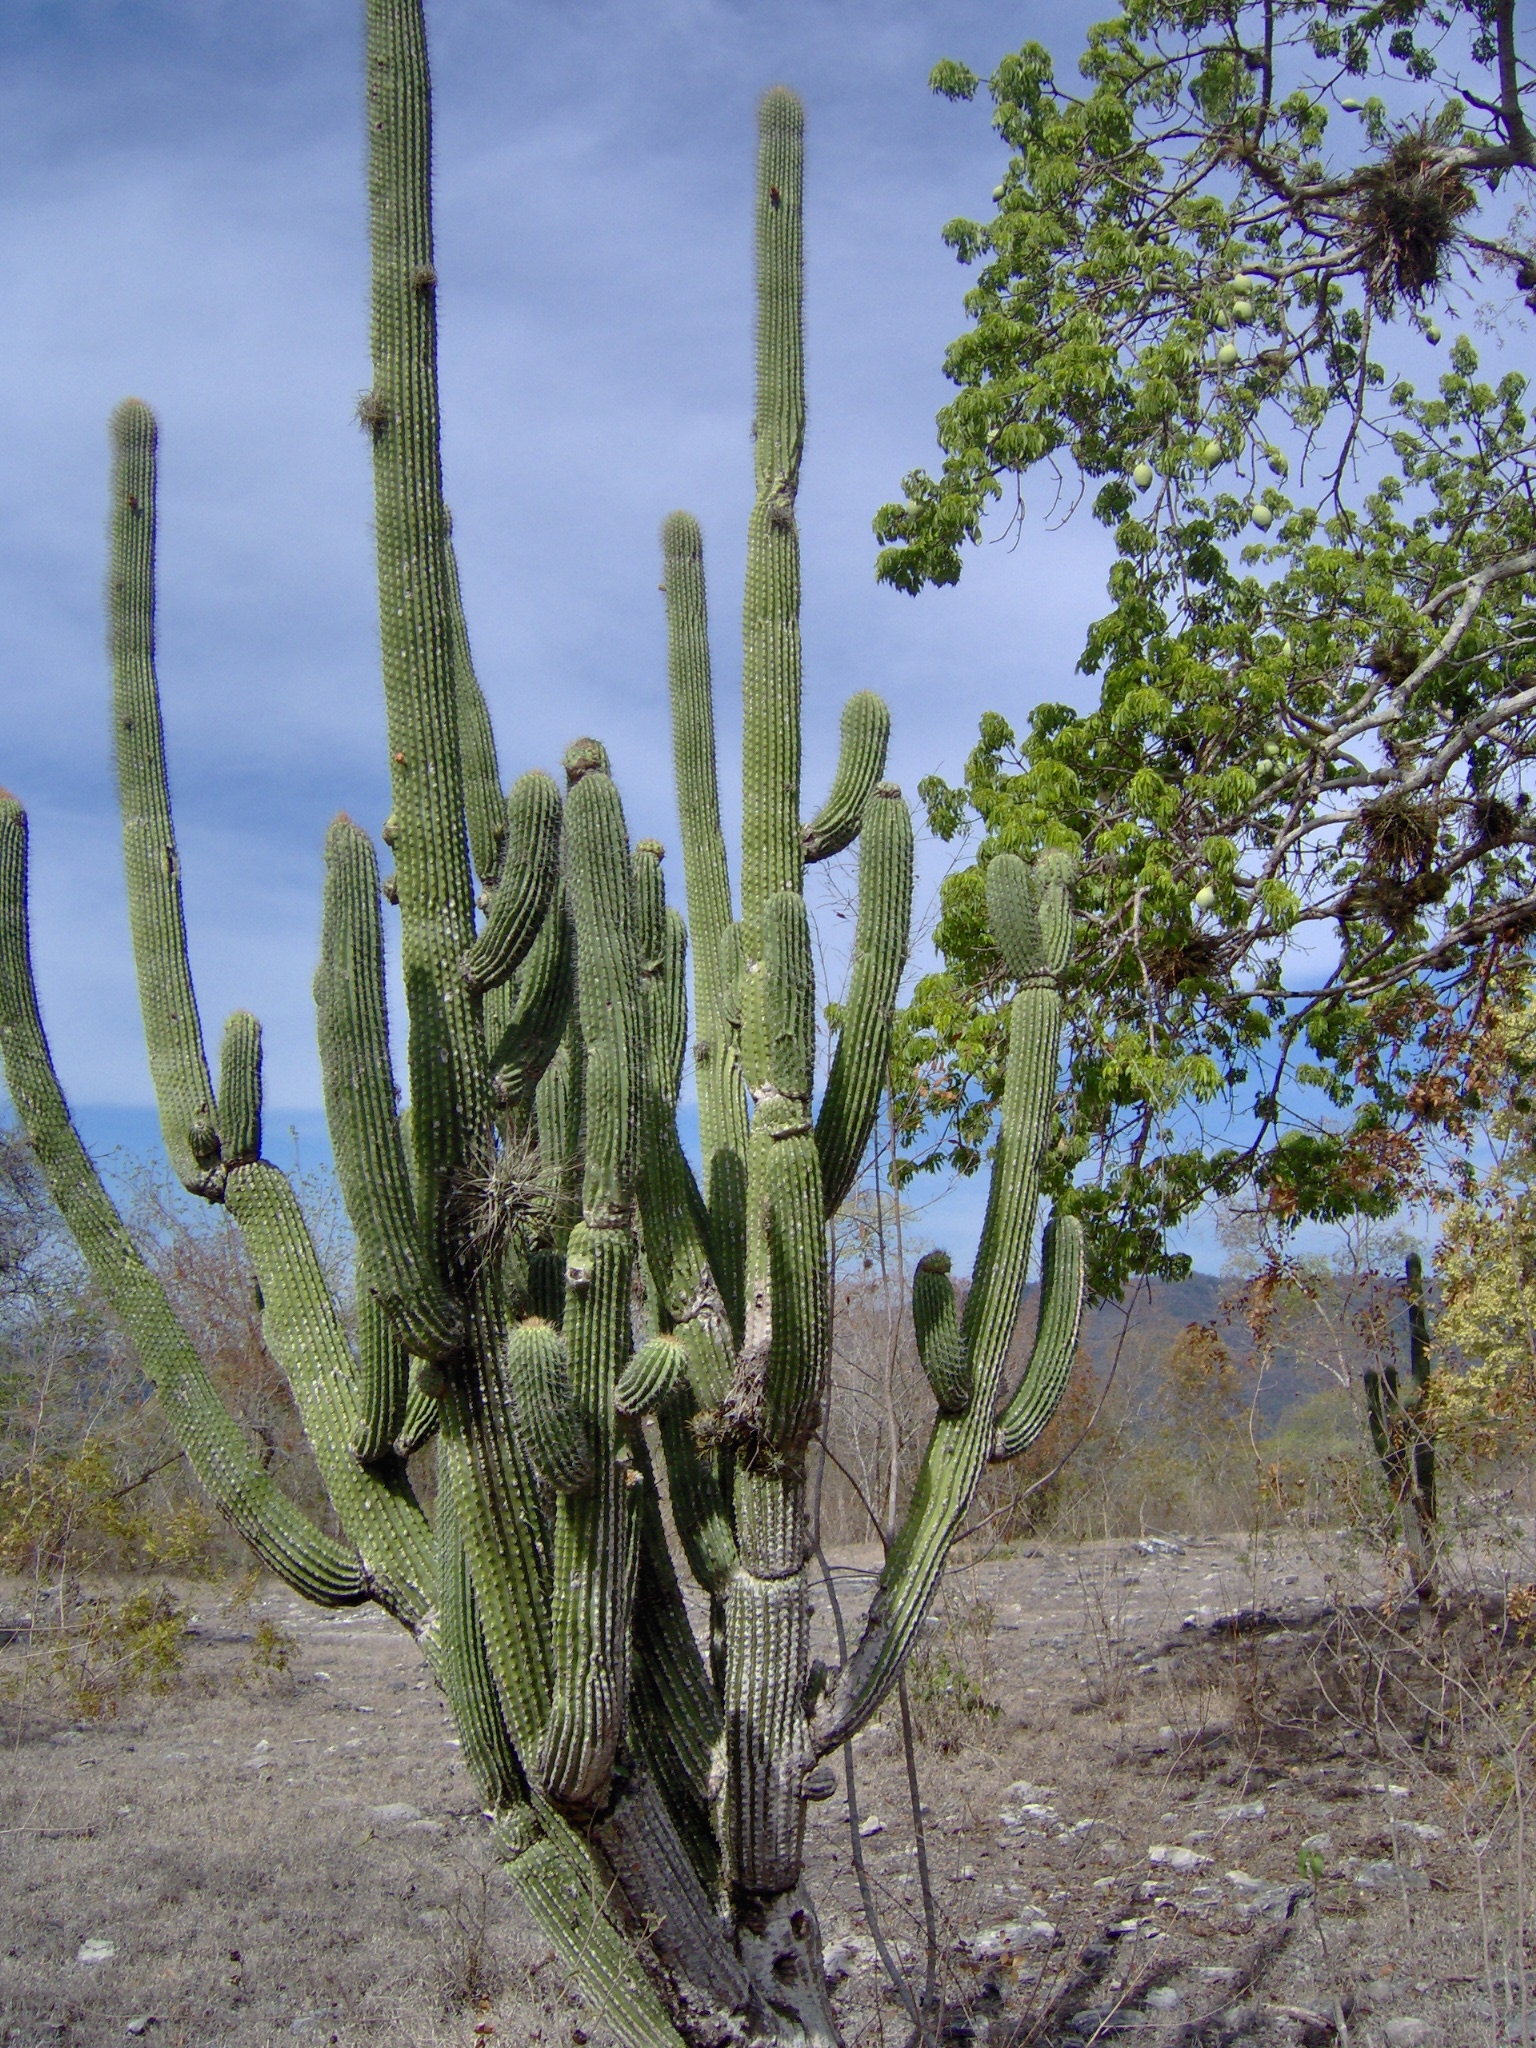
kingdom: Plantae
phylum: Tracheophyta
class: Magnoliopsida
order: Caryophyllales
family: Cactaceae
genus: Cephalocereus
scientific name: Cephalocereus scoparius
